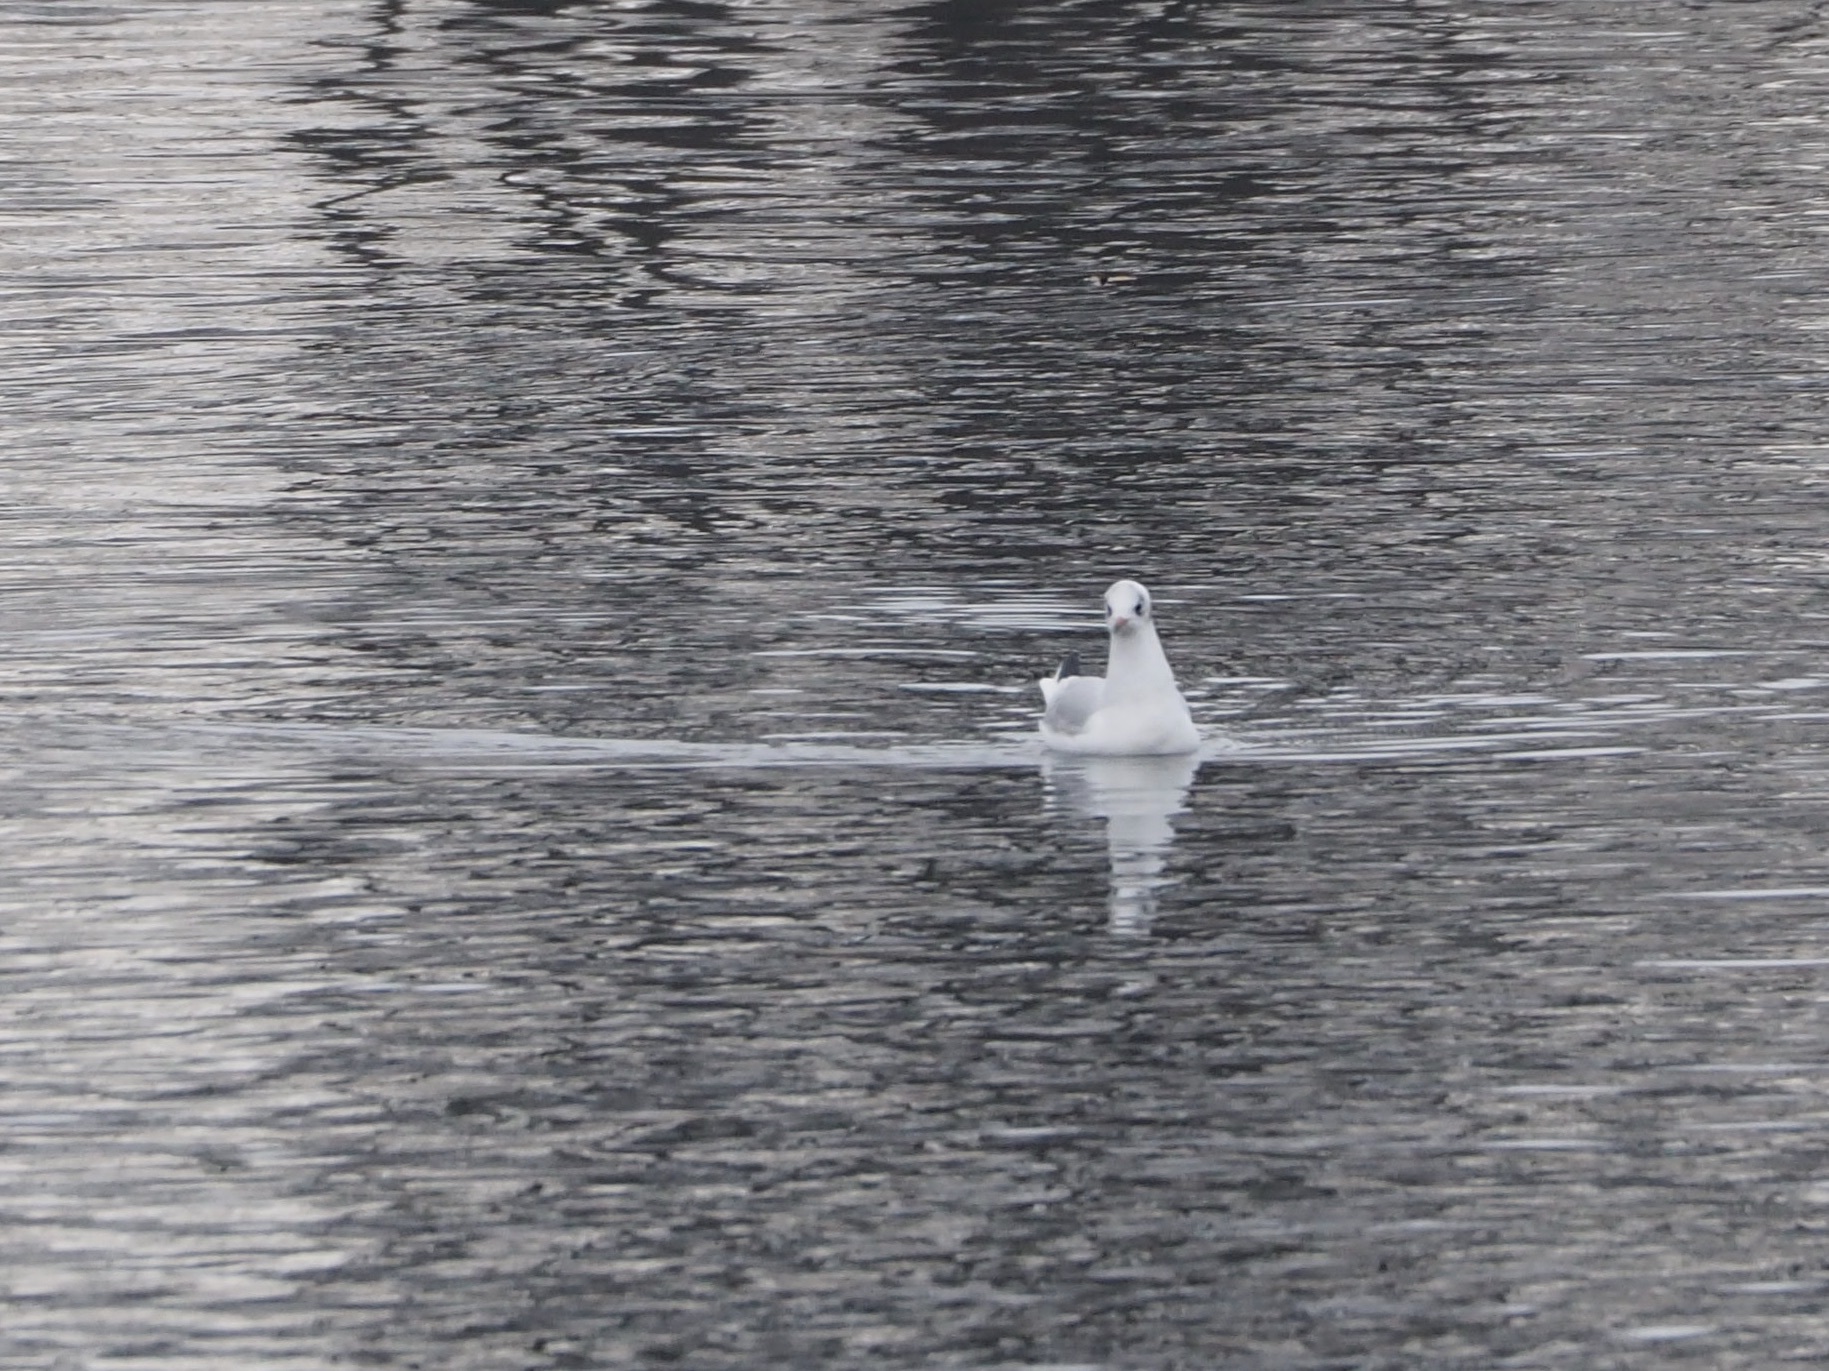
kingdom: Animalia
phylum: Chordata
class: Aves
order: Charadriiformes
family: Laridae
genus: Chroicocephalus
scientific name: Chroicocephalus ridibundus
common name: Black-headed gull
